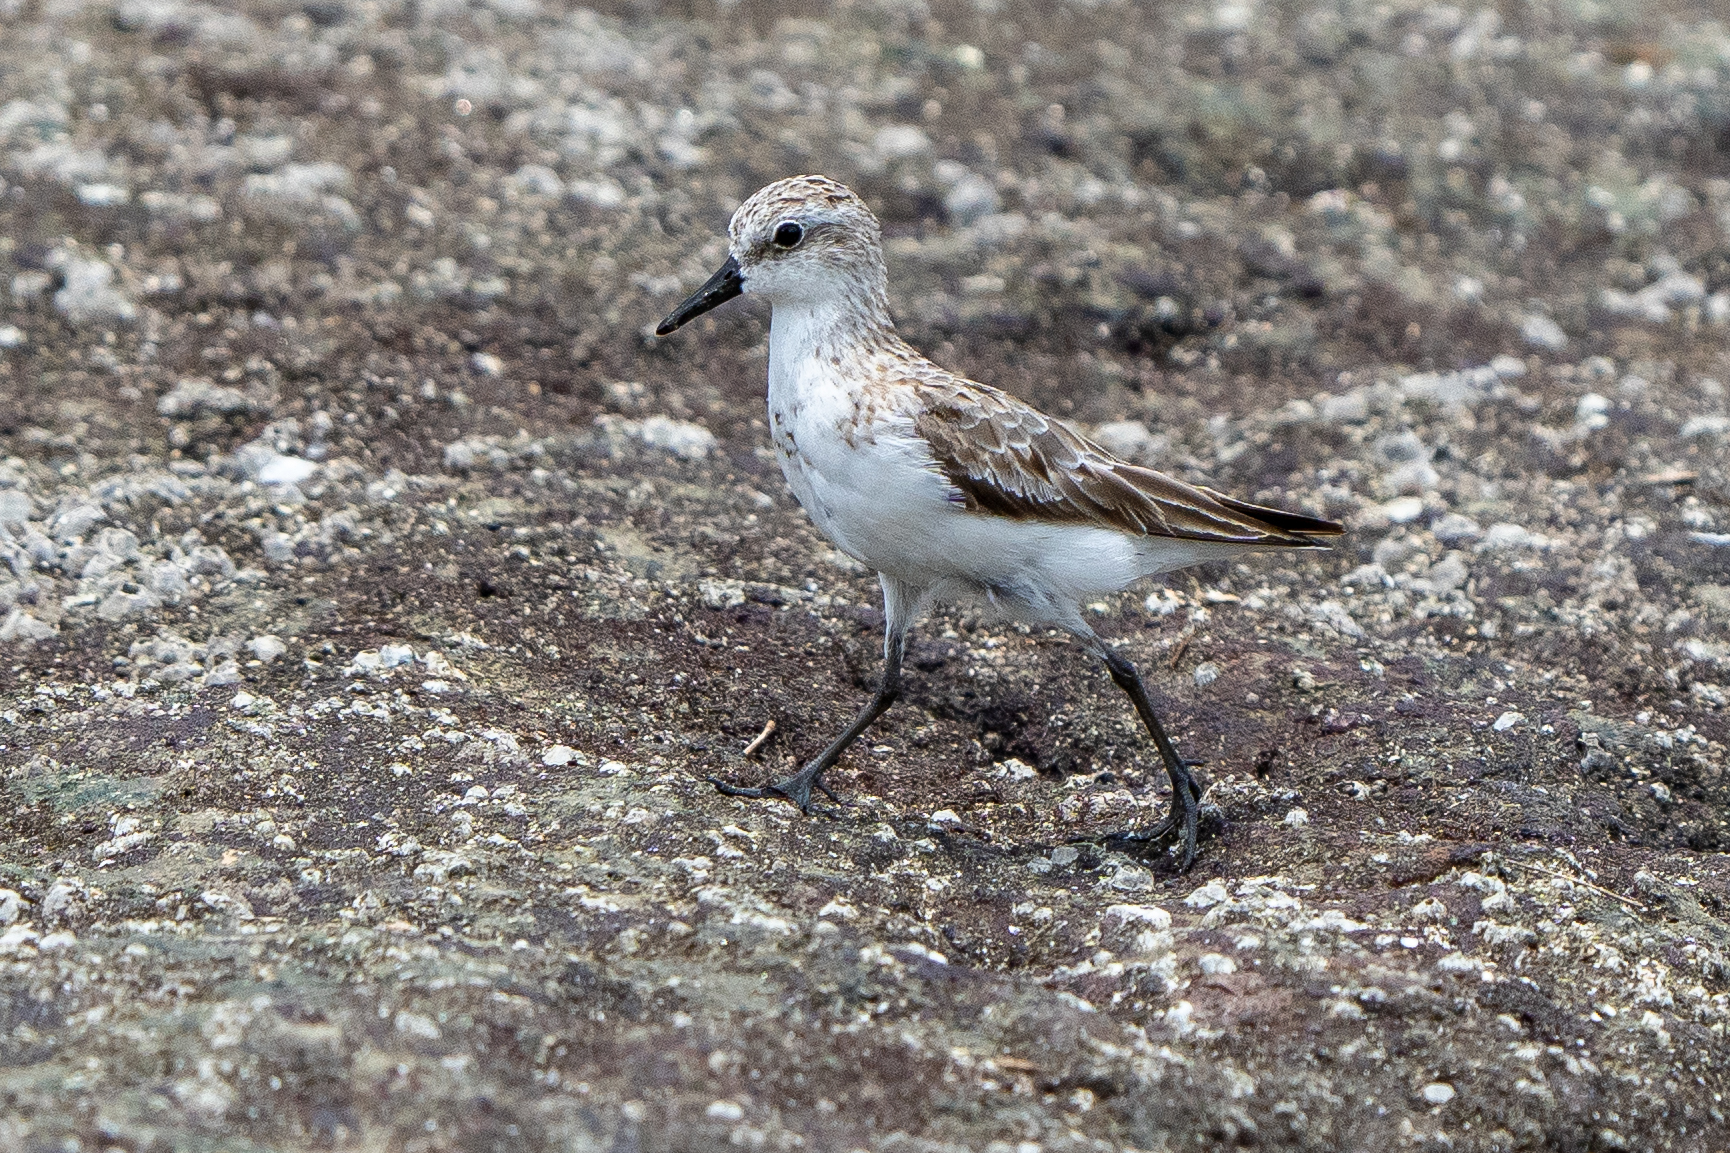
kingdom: Animalia
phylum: Chordata
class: Aves
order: Charadriiformes
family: Scolopacidae
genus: Calidris
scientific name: Calidris pusilla
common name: Semipalmated sandpiper
